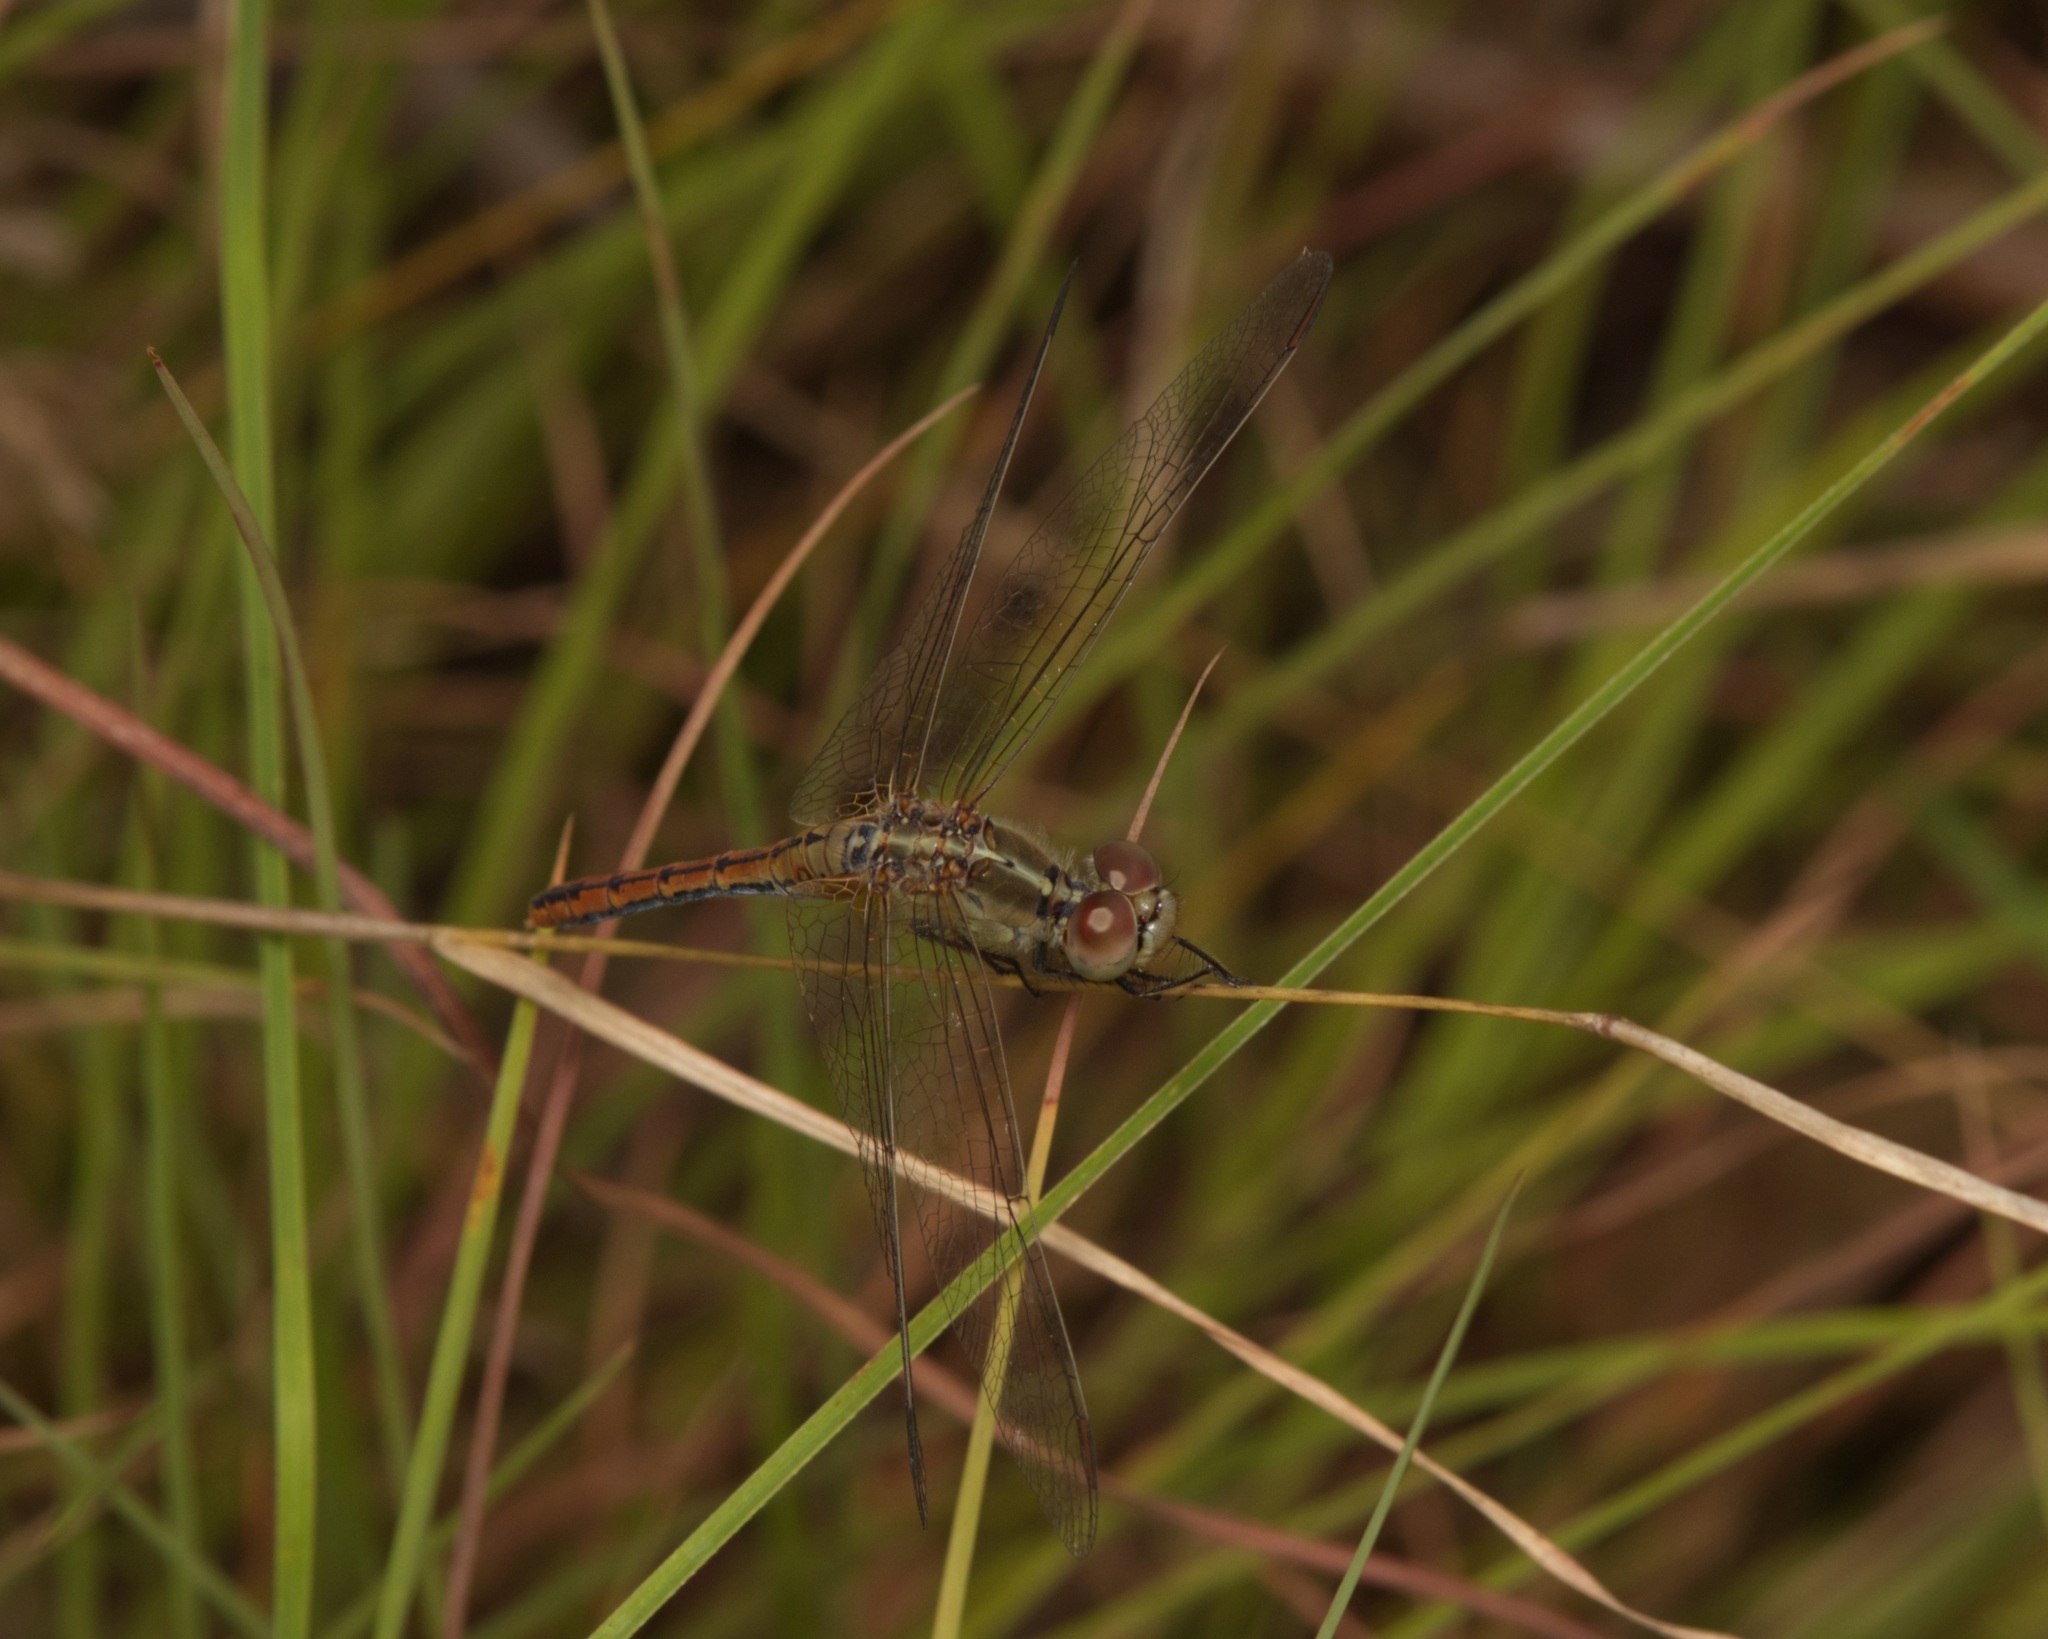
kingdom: Animalia
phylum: Arthropoda
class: Insecta
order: Odonata
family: Libellulidae
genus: Diplacodes
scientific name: Diplacodes bipunctata
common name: Red percher dragonfly
